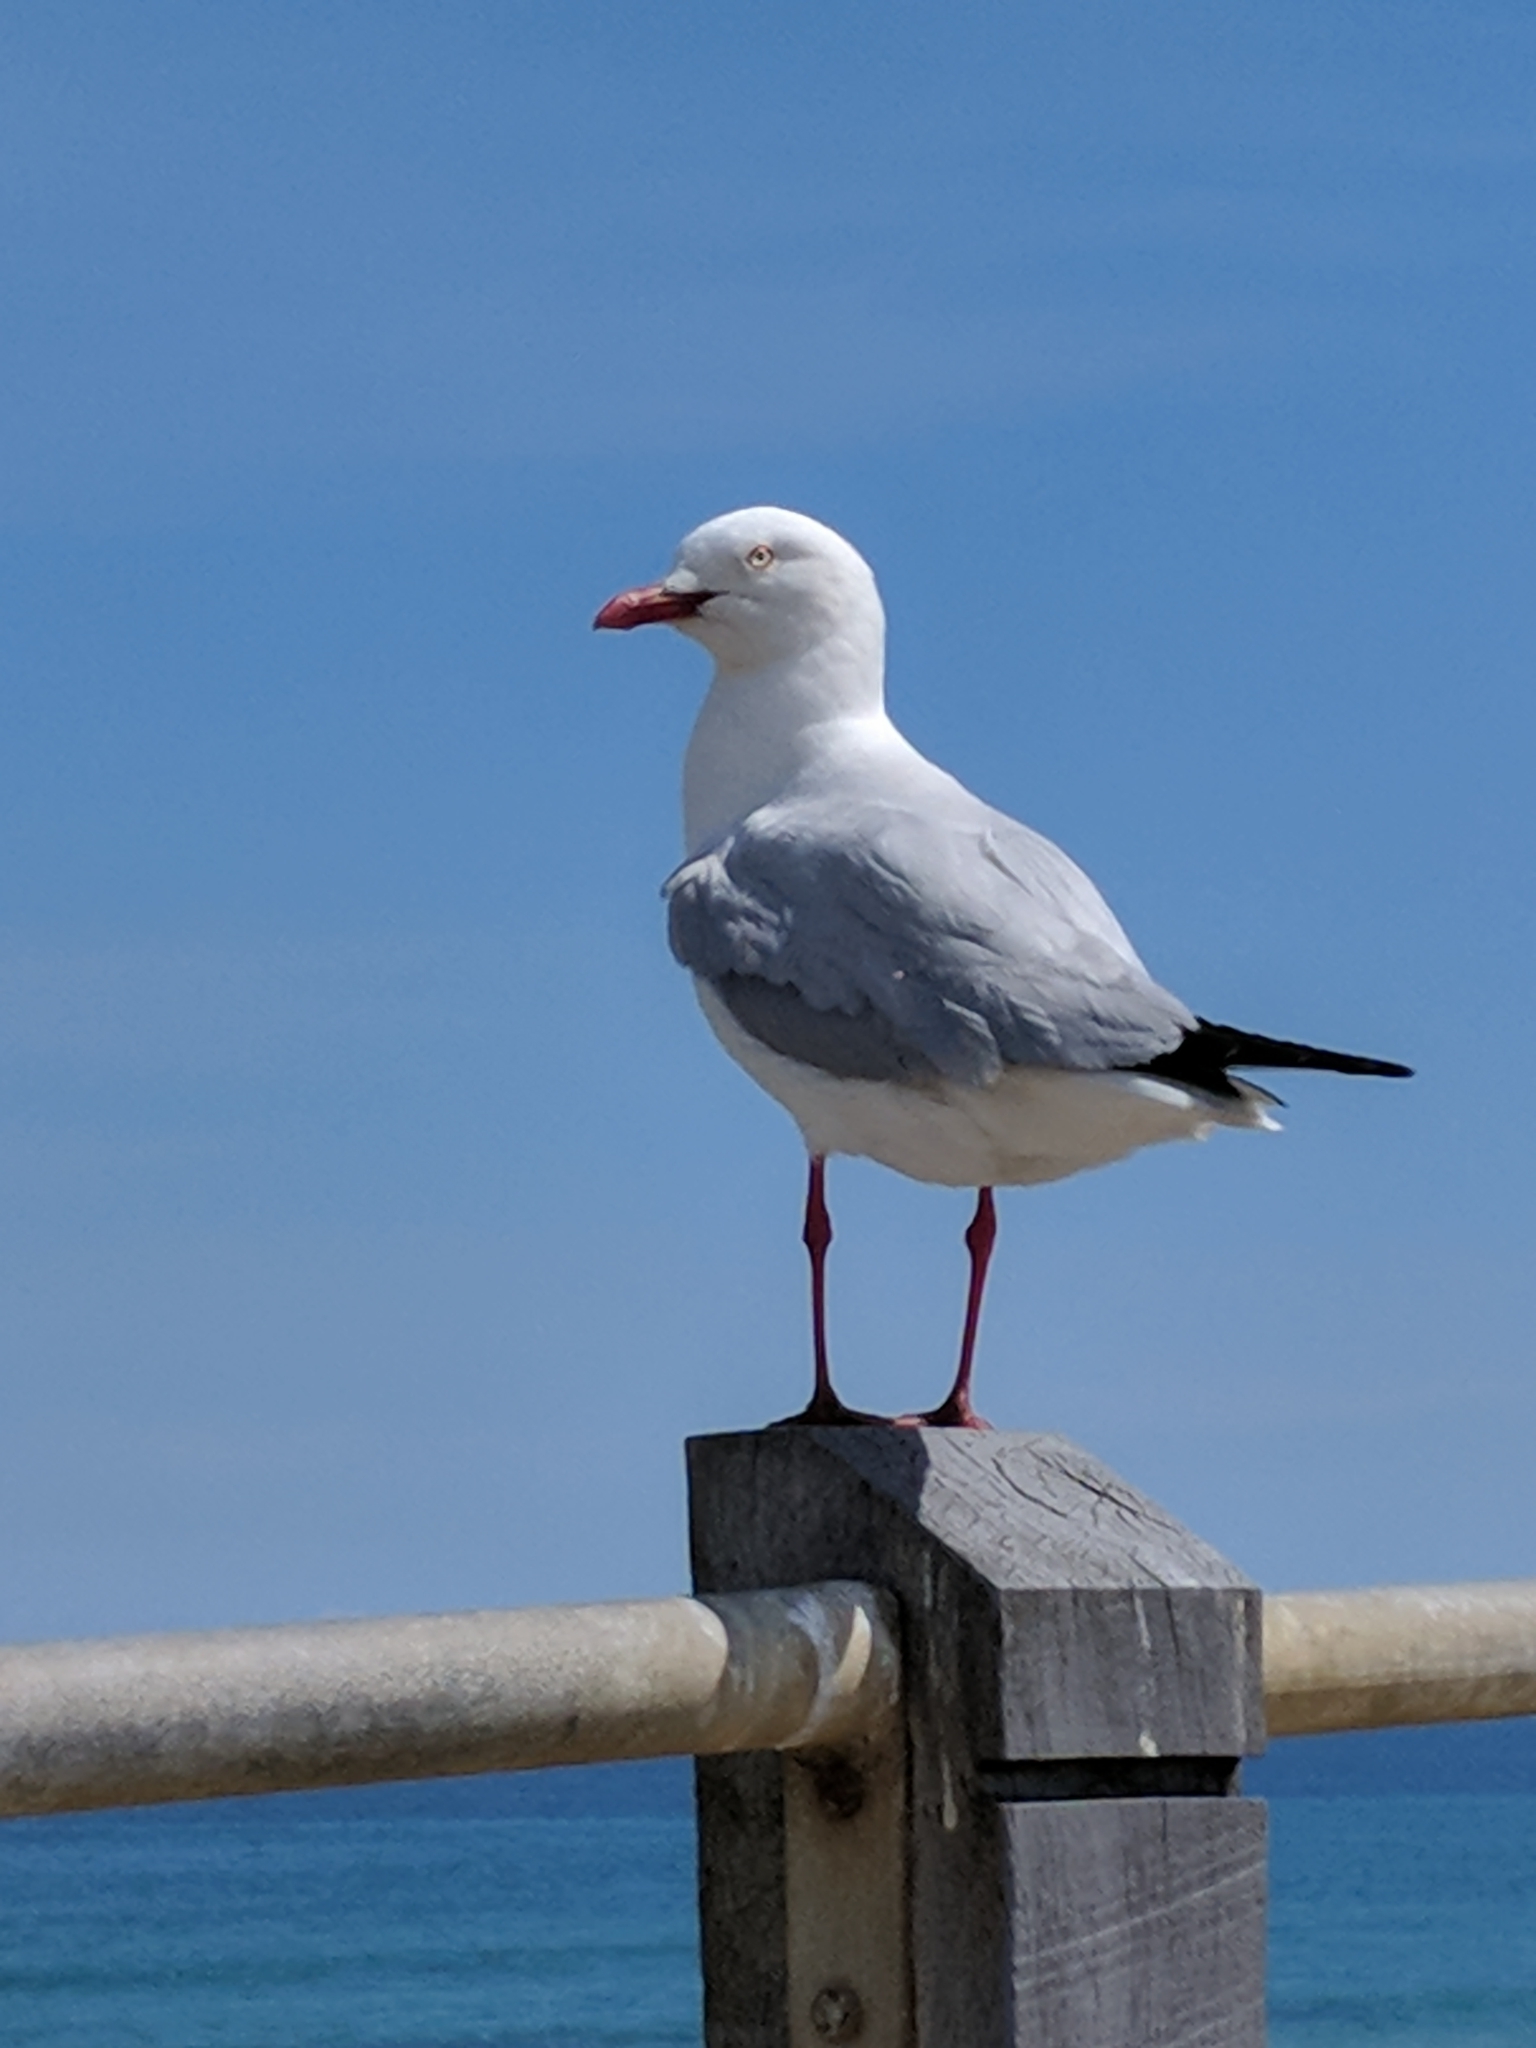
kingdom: Animalia
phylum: Chordata
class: Aves
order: Charadriiformes
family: Laridae
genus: Chroicocephalus
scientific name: Chroicocephalus novaehollandiae
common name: Silver gull
